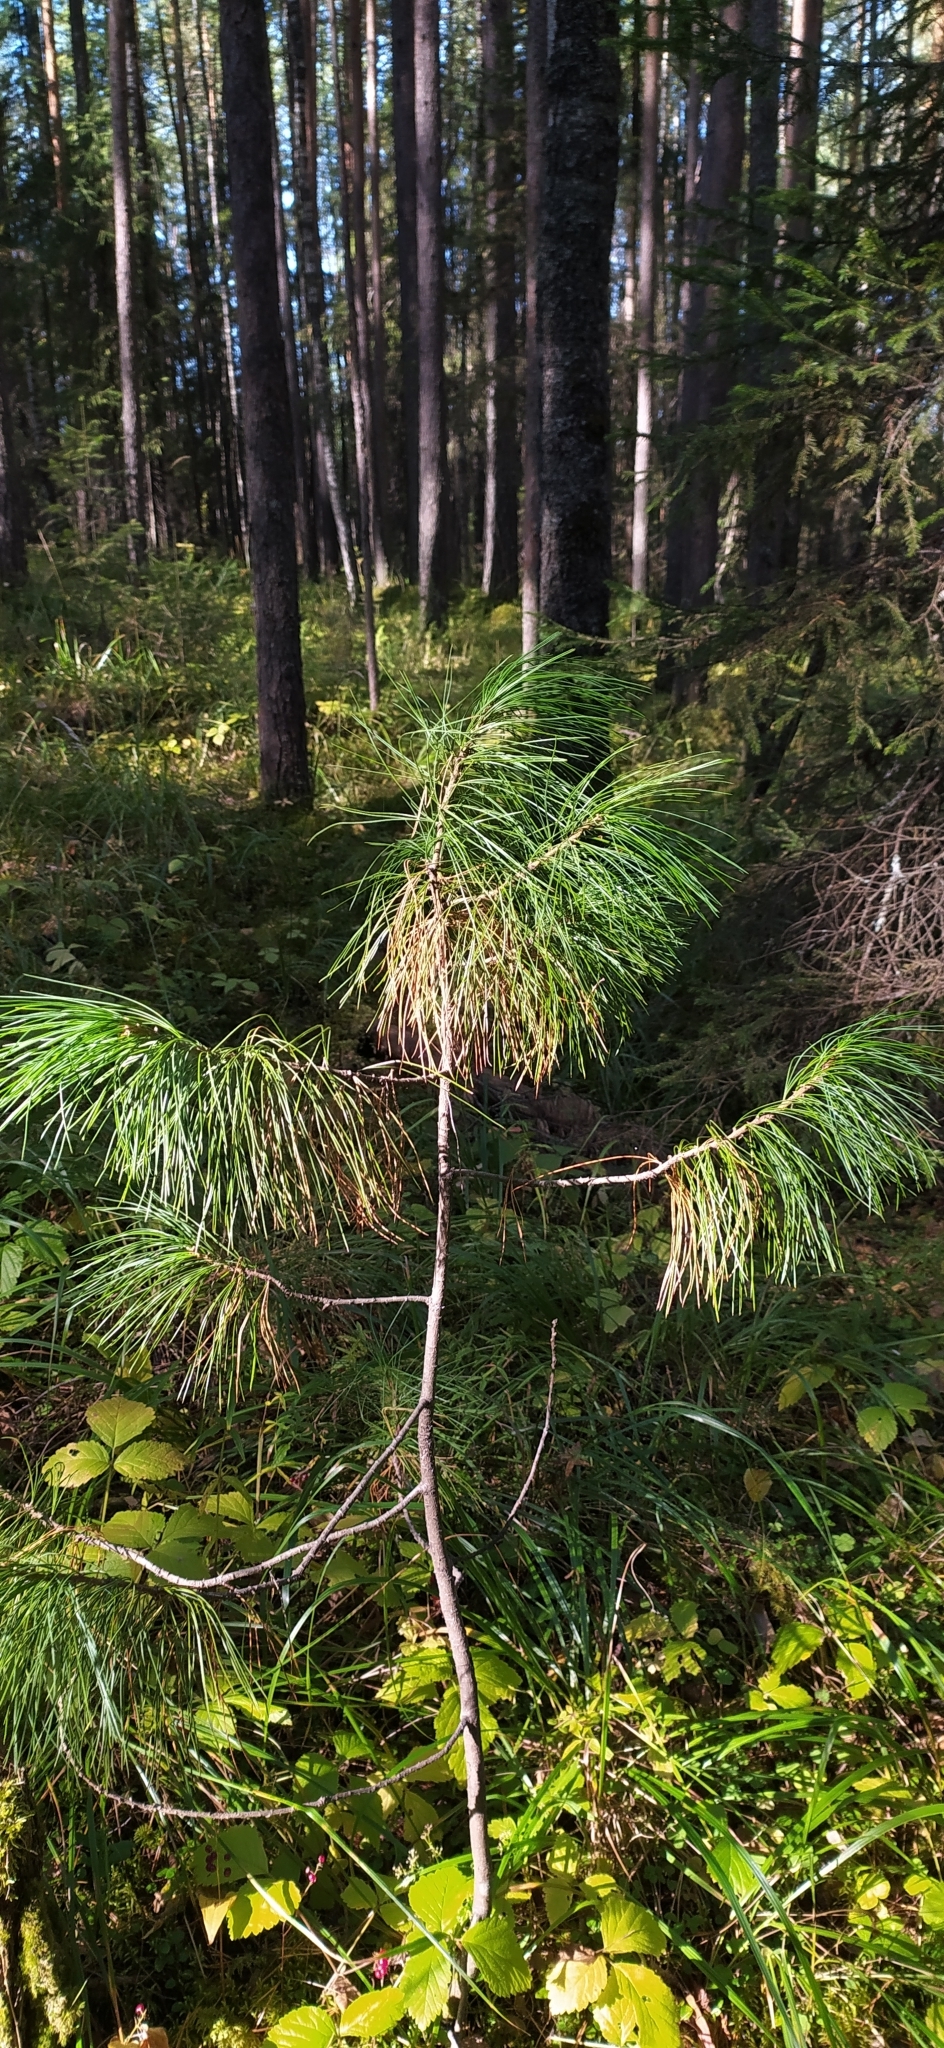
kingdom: Plantae
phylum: Tracheophyta
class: Pinopsida
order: Pinales
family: Pinaceae
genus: Pinus
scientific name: Pinus sibirica
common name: Siberian pine
